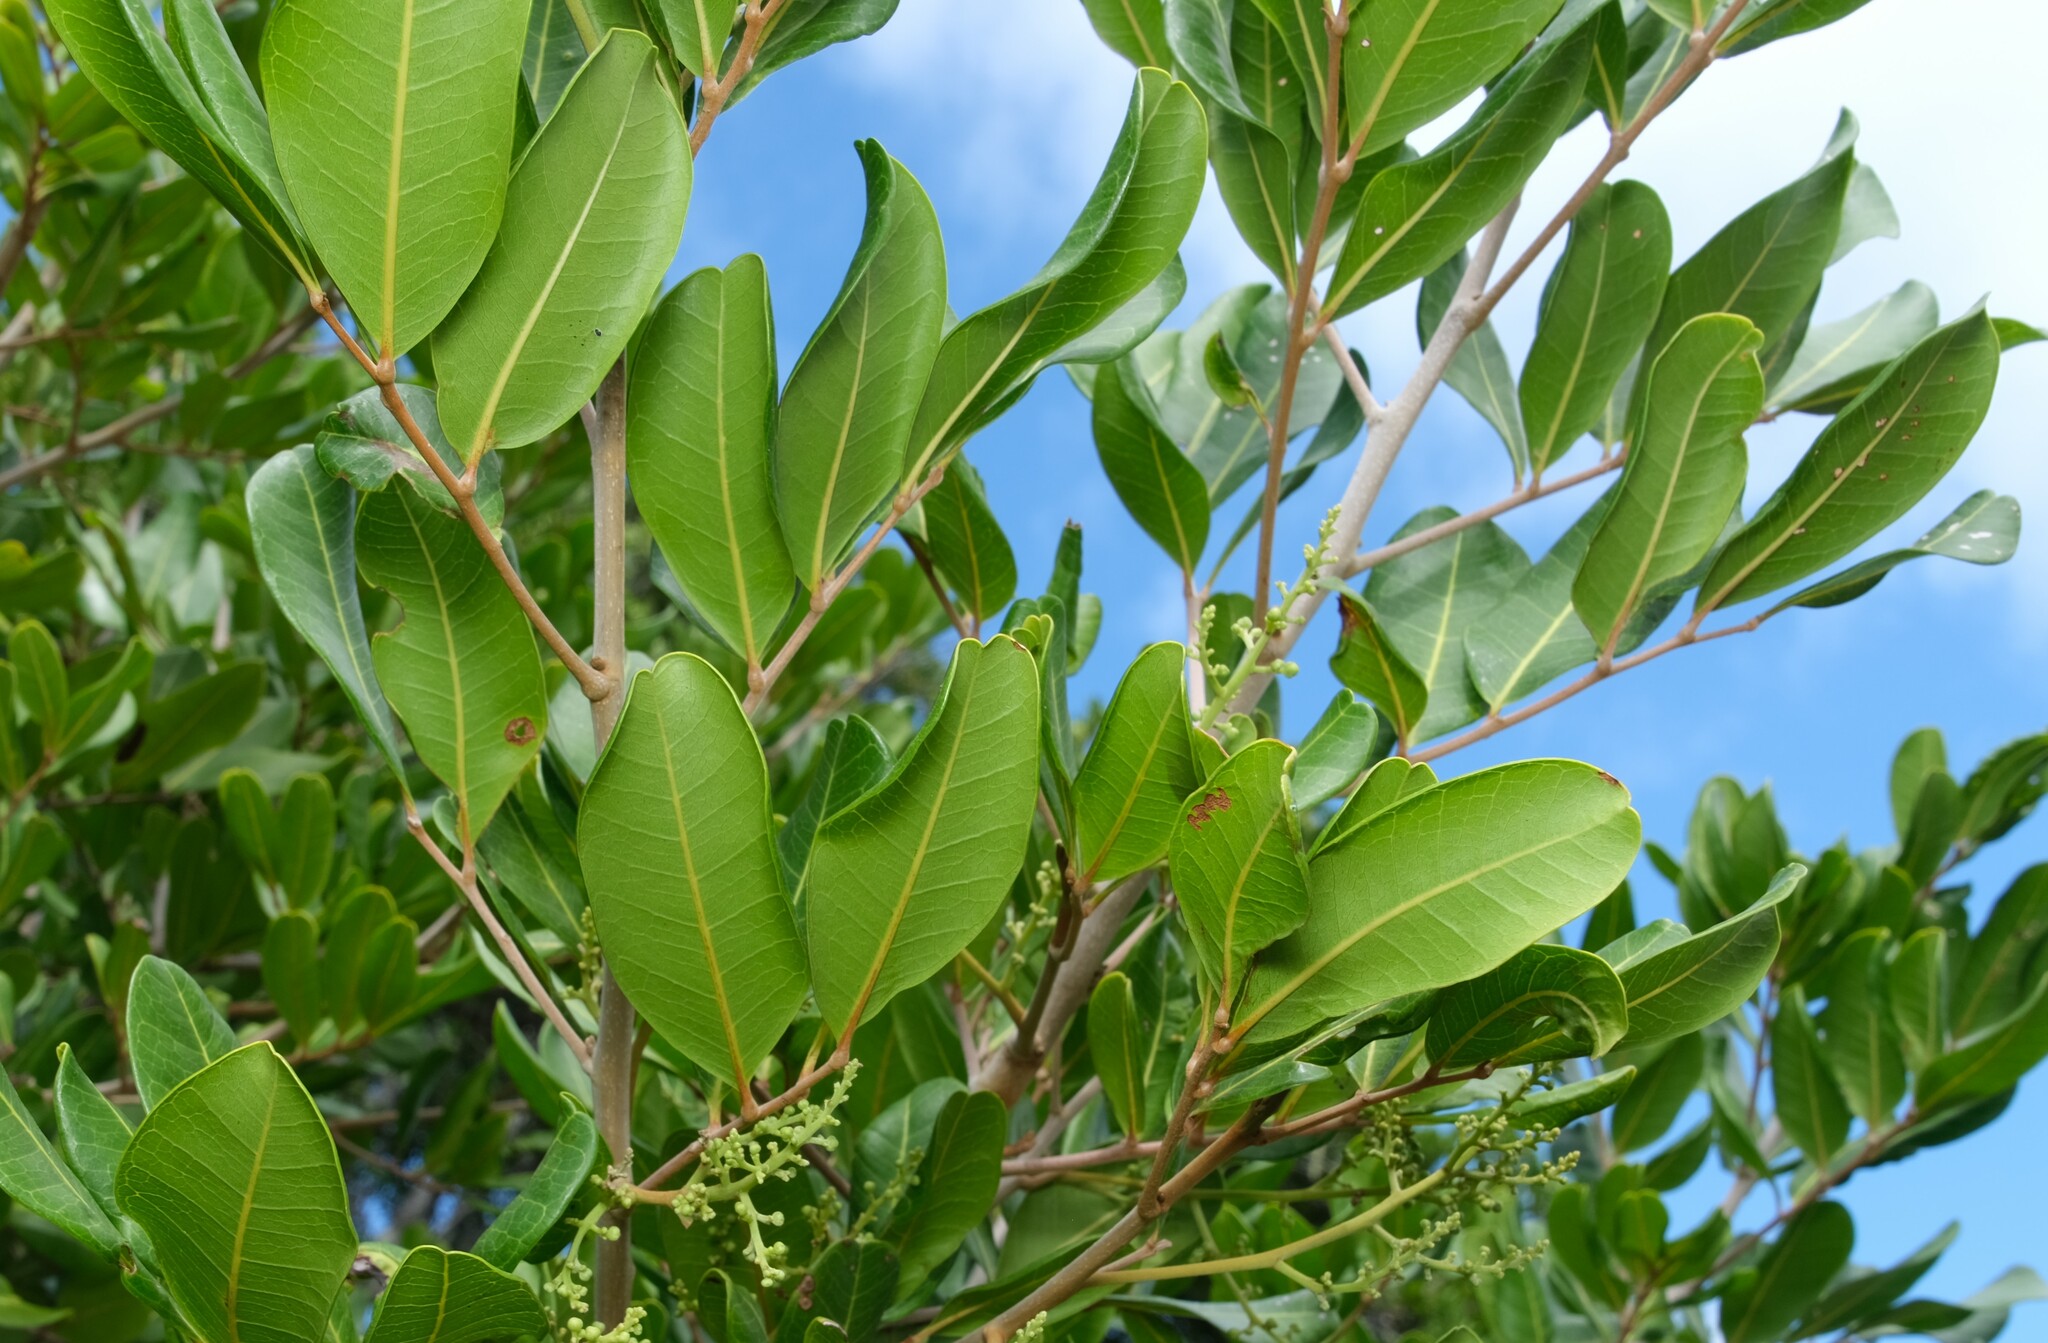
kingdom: Plantae
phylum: Tracheophyta
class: Magnoliopsida
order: Sapindales
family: Sapindaceae
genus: Cupaniopsis
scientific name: Cupaniopsis anacardioides
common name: Carrotwood
